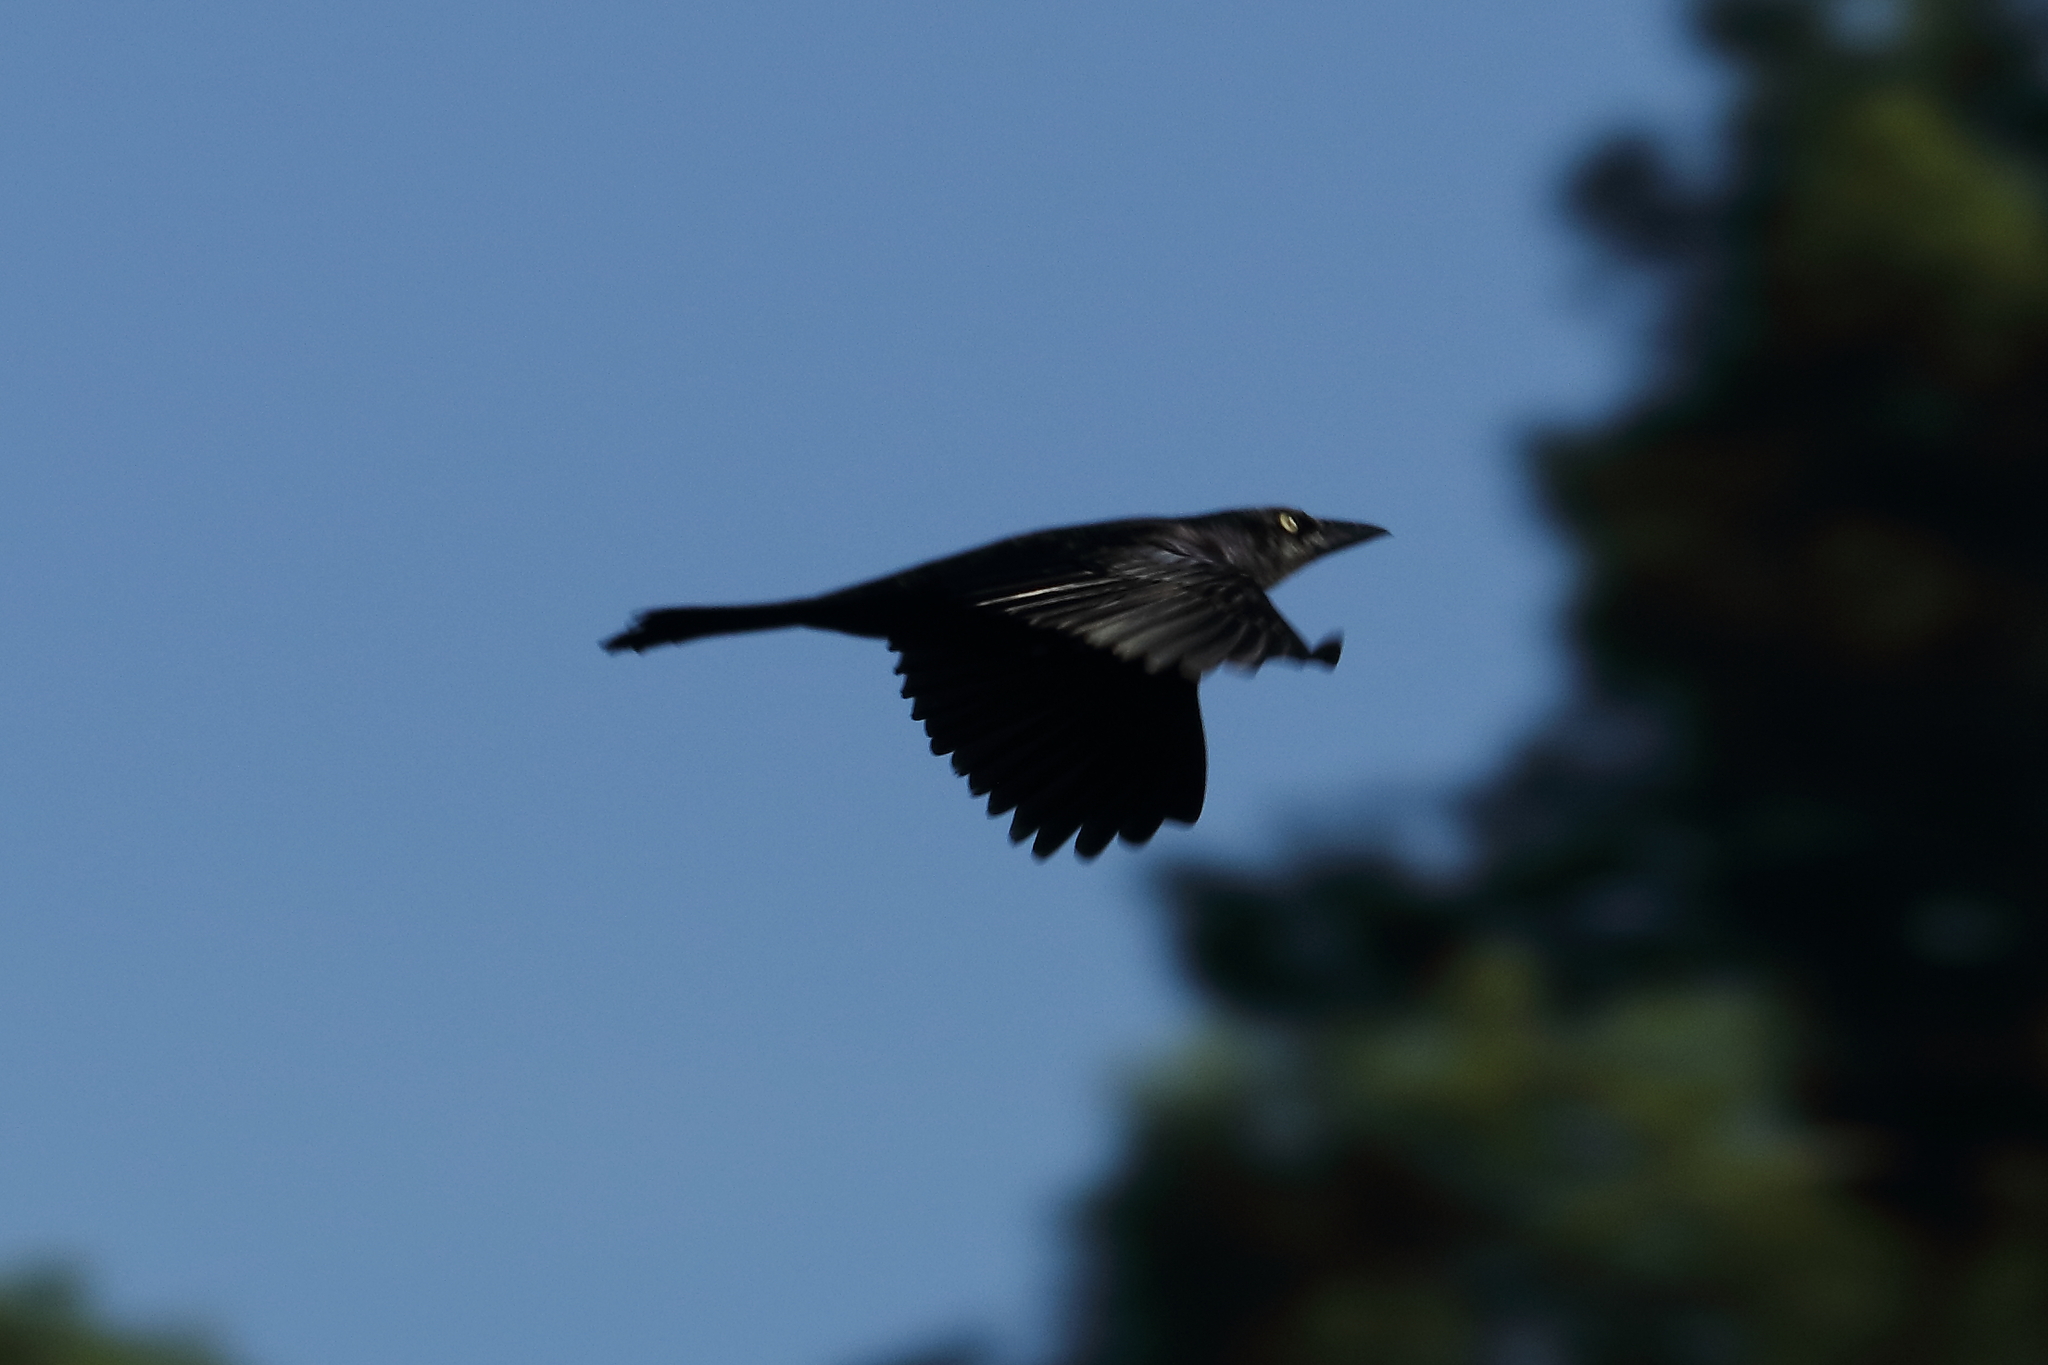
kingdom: Animalia
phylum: Chordata
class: Aves
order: Passeriformes
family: Icteridae
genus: Quiscalus
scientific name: Quiscalus quiscula
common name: Common grackle
